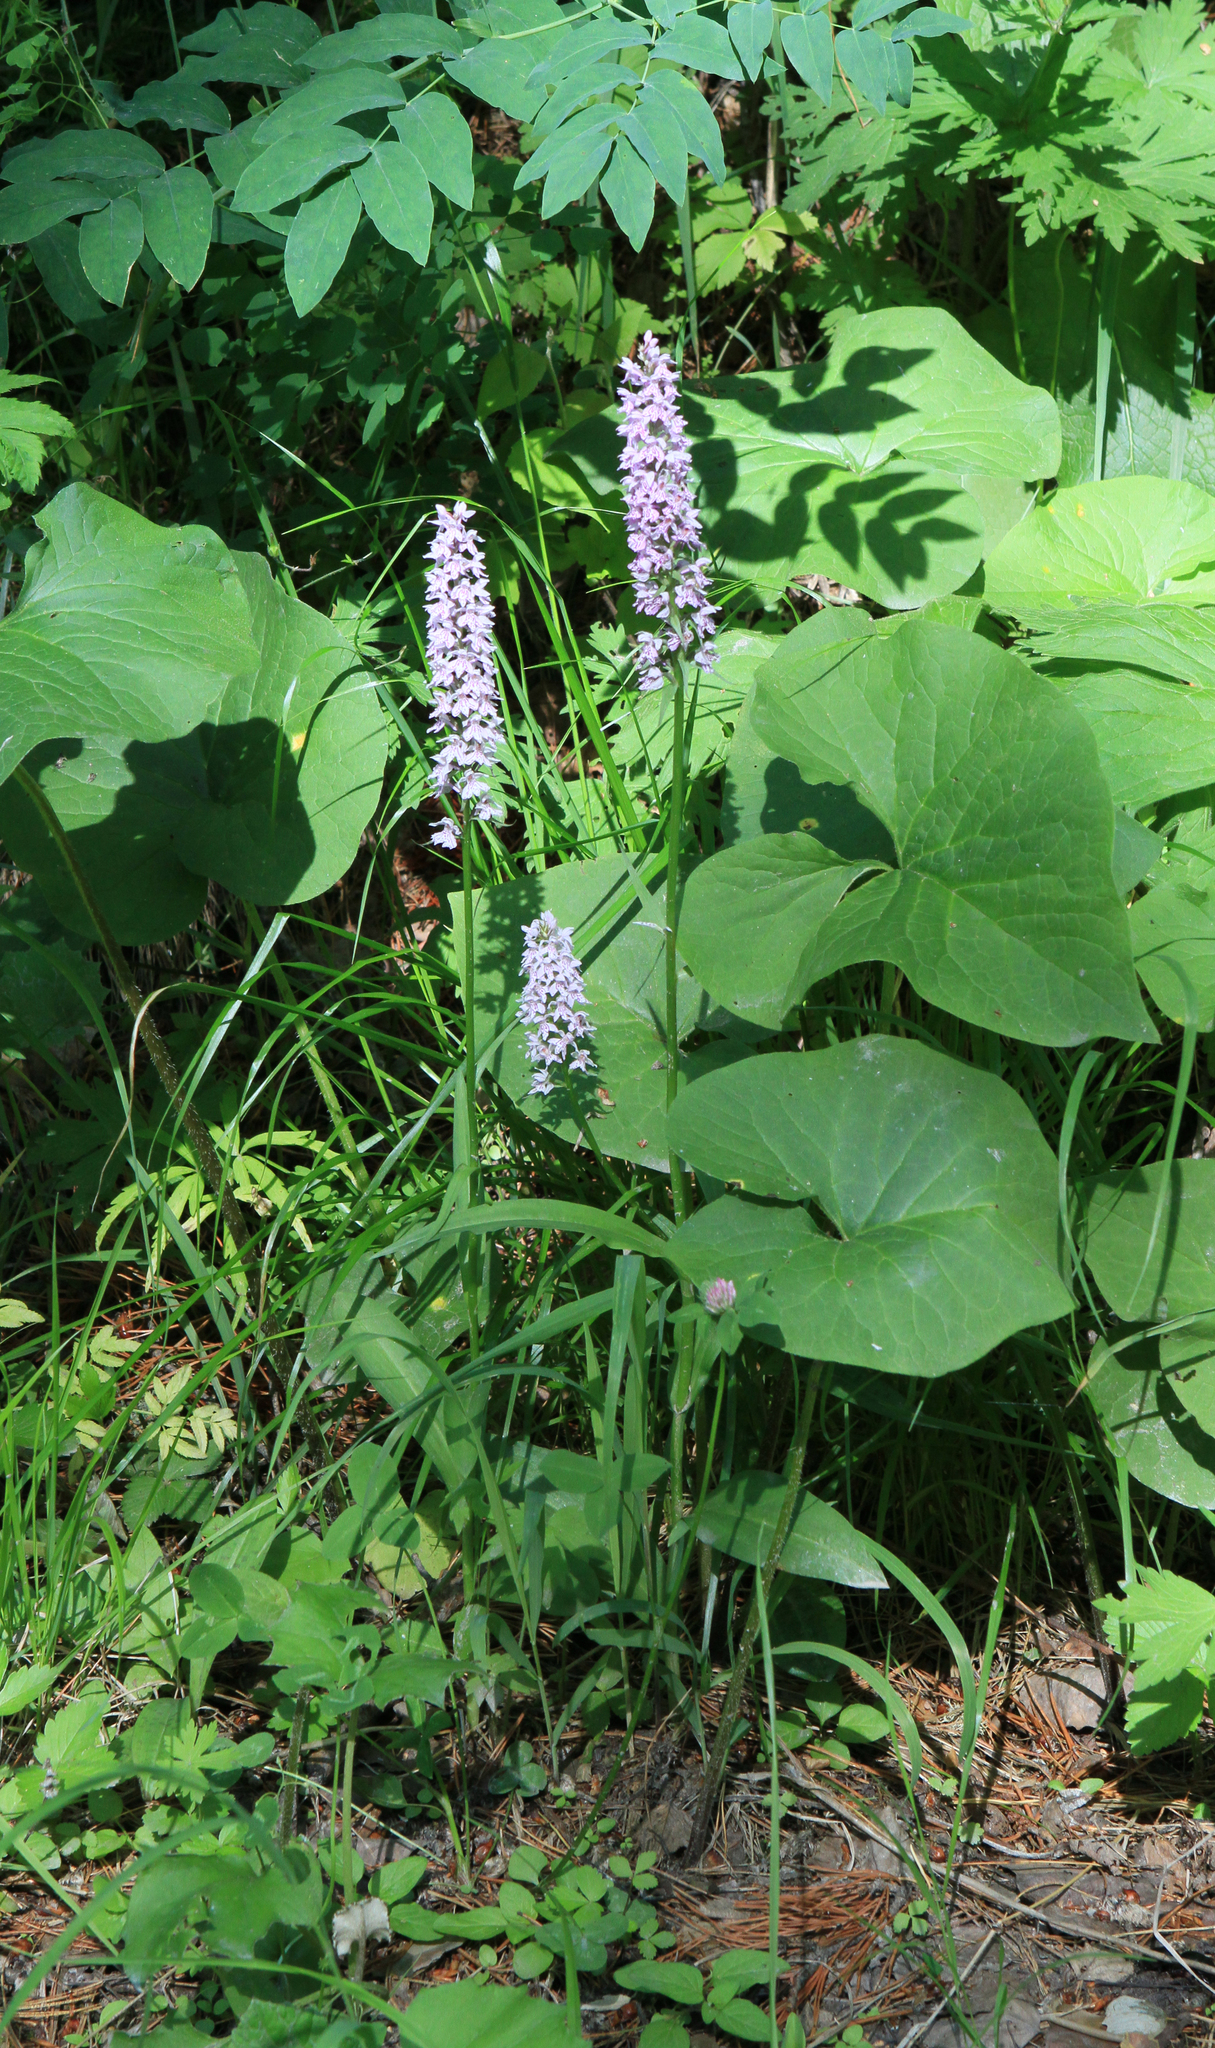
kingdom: Plantae
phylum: Tracheophyta
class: Liliopsida
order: Asparagales
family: Orchidaceae
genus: Dactylorhiza
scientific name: Dactylorhiza maculata
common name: Heath spotted-orchid
